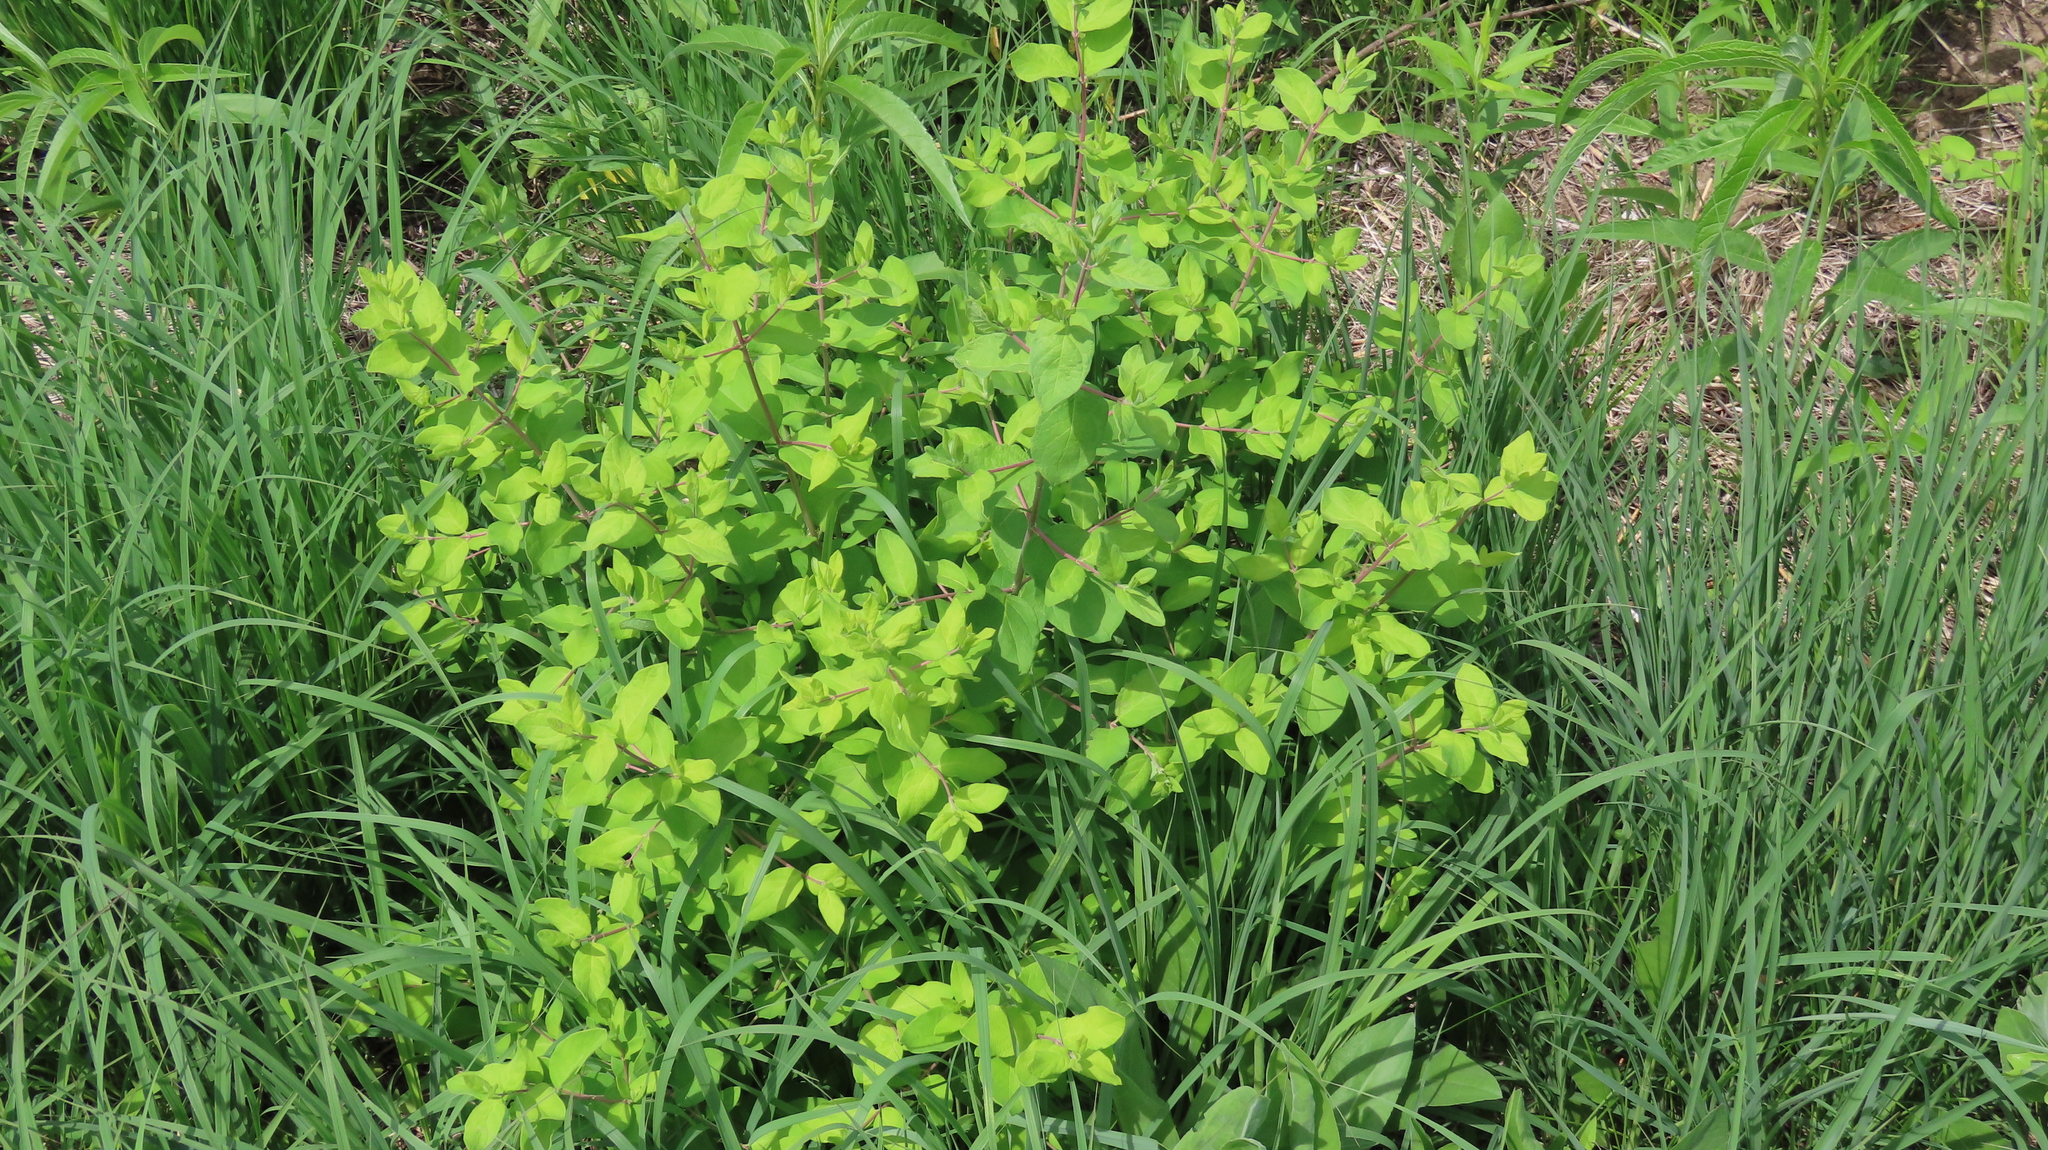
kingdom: Plantae
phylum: Tracheophyta
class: Magnoliopsida
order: Dipsacales
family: Caprifoliaceae
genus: Lonicera
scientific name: Lonicera tatarica
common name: Tatarian honeysuckle
